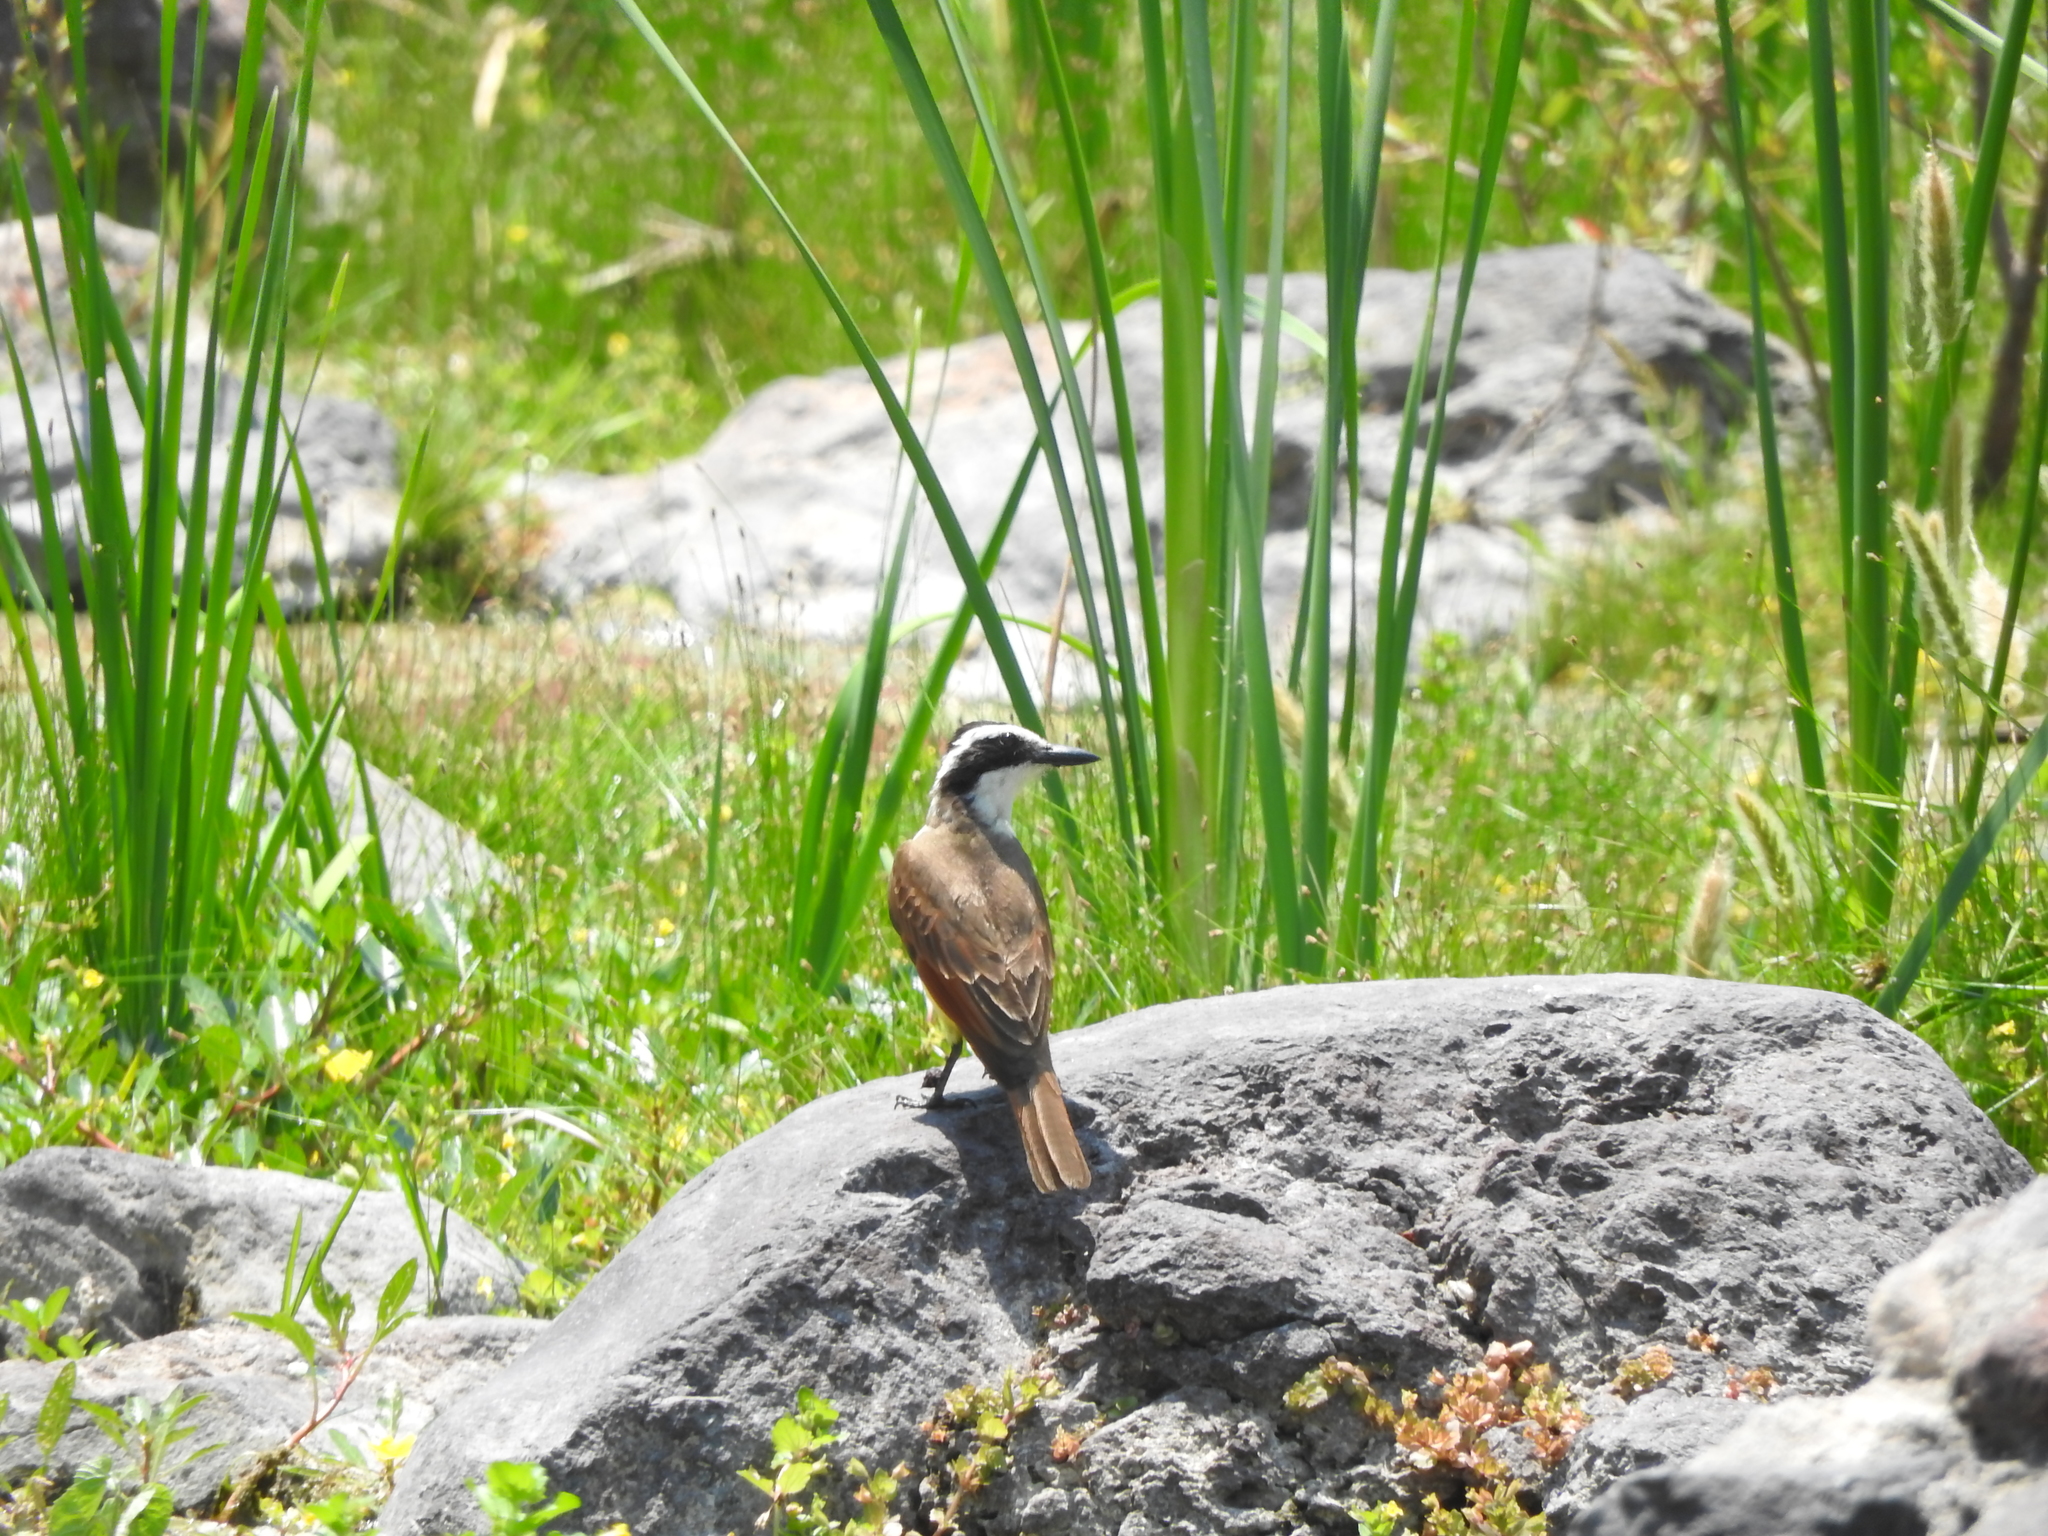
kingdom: Animalia
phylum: Chordata
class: Aves
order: Passeriformes
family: Tyrannidae
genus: Pitangus
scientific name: Pitangus sulphuratus
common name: Great kiskadee
